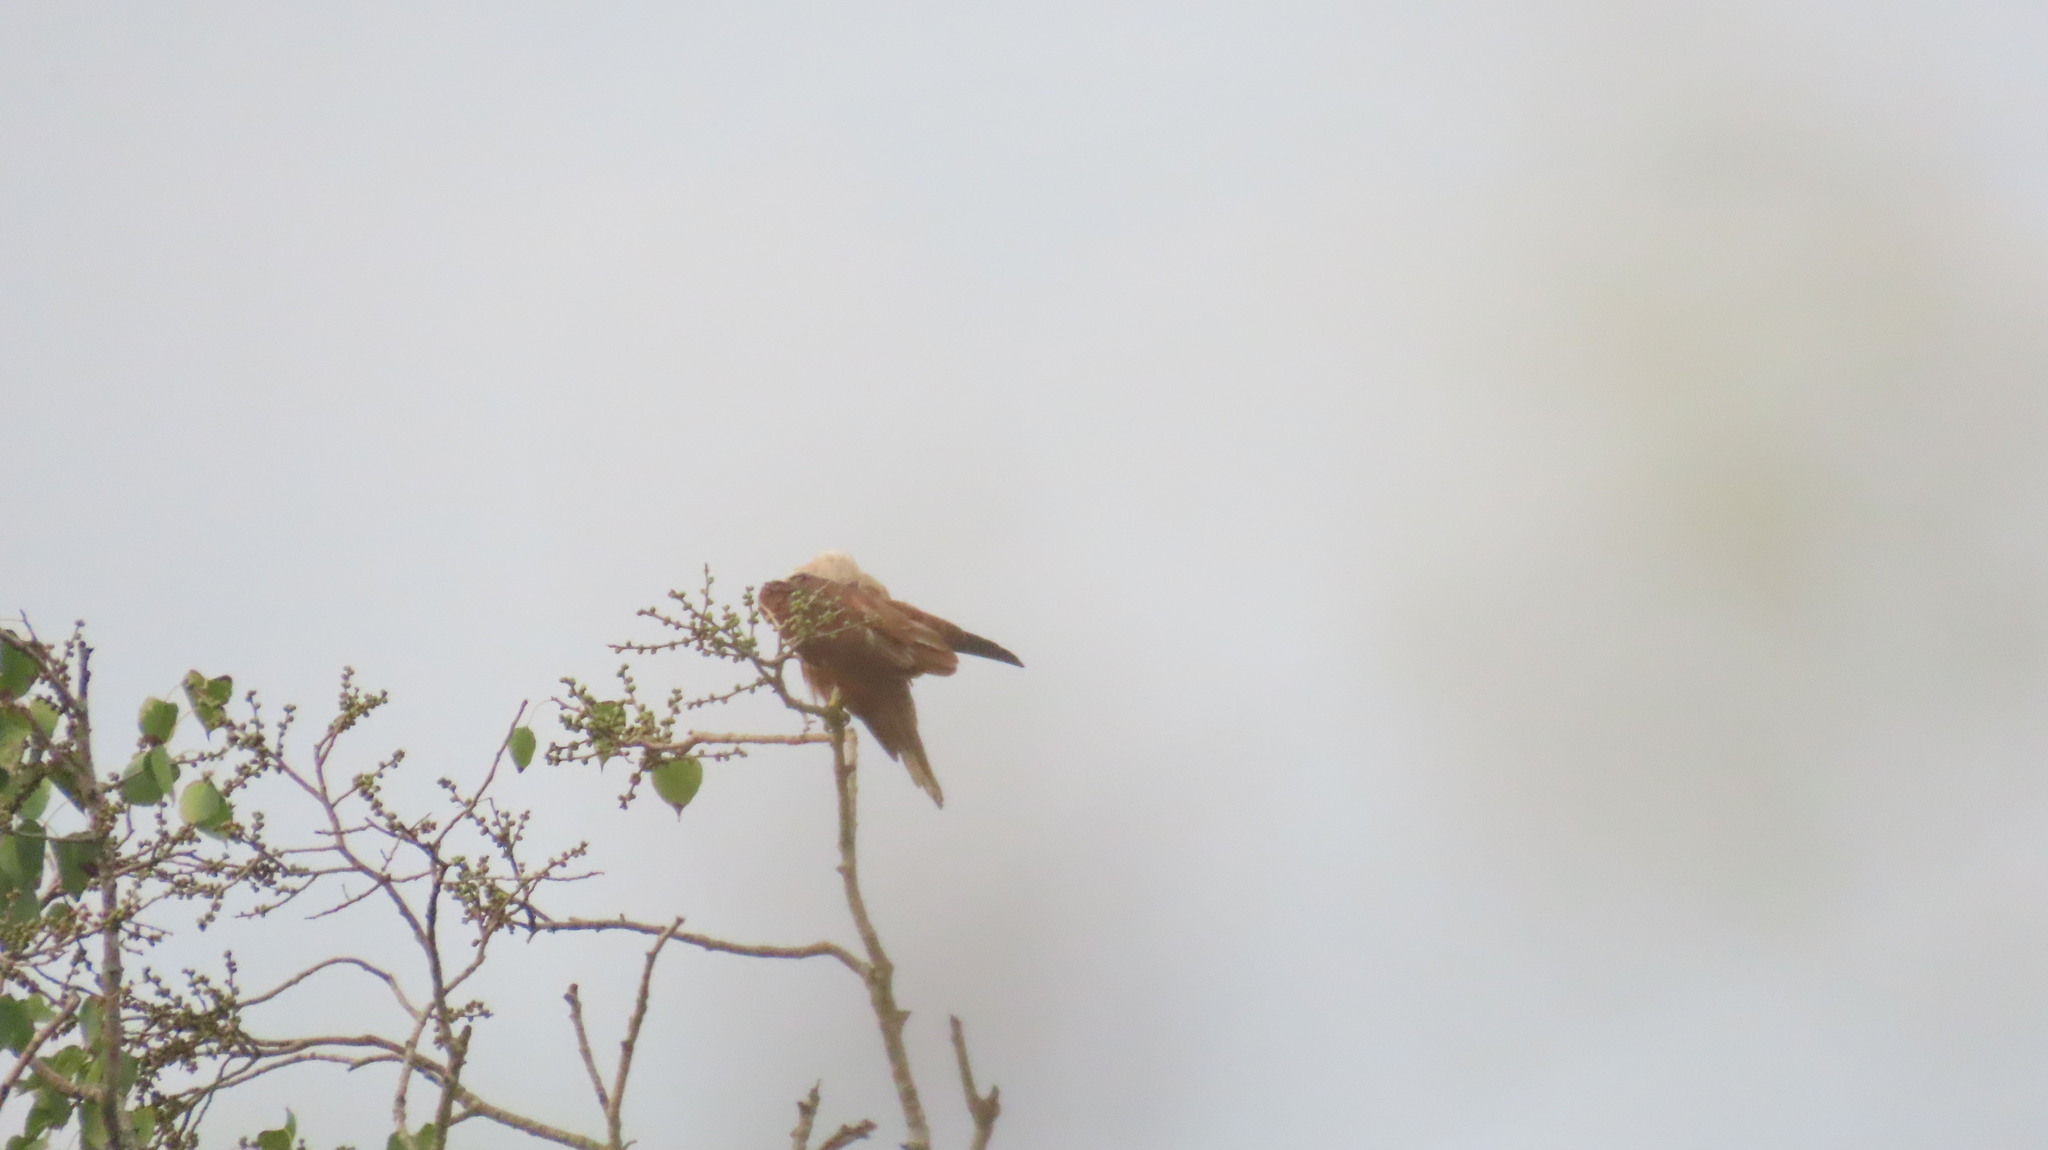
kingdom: Animalia
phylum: Chordata
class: Aves
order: Accipitriformes
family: Accipitridae
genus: Haliastur
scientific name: Haliastur indus
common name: Brahminy kite
